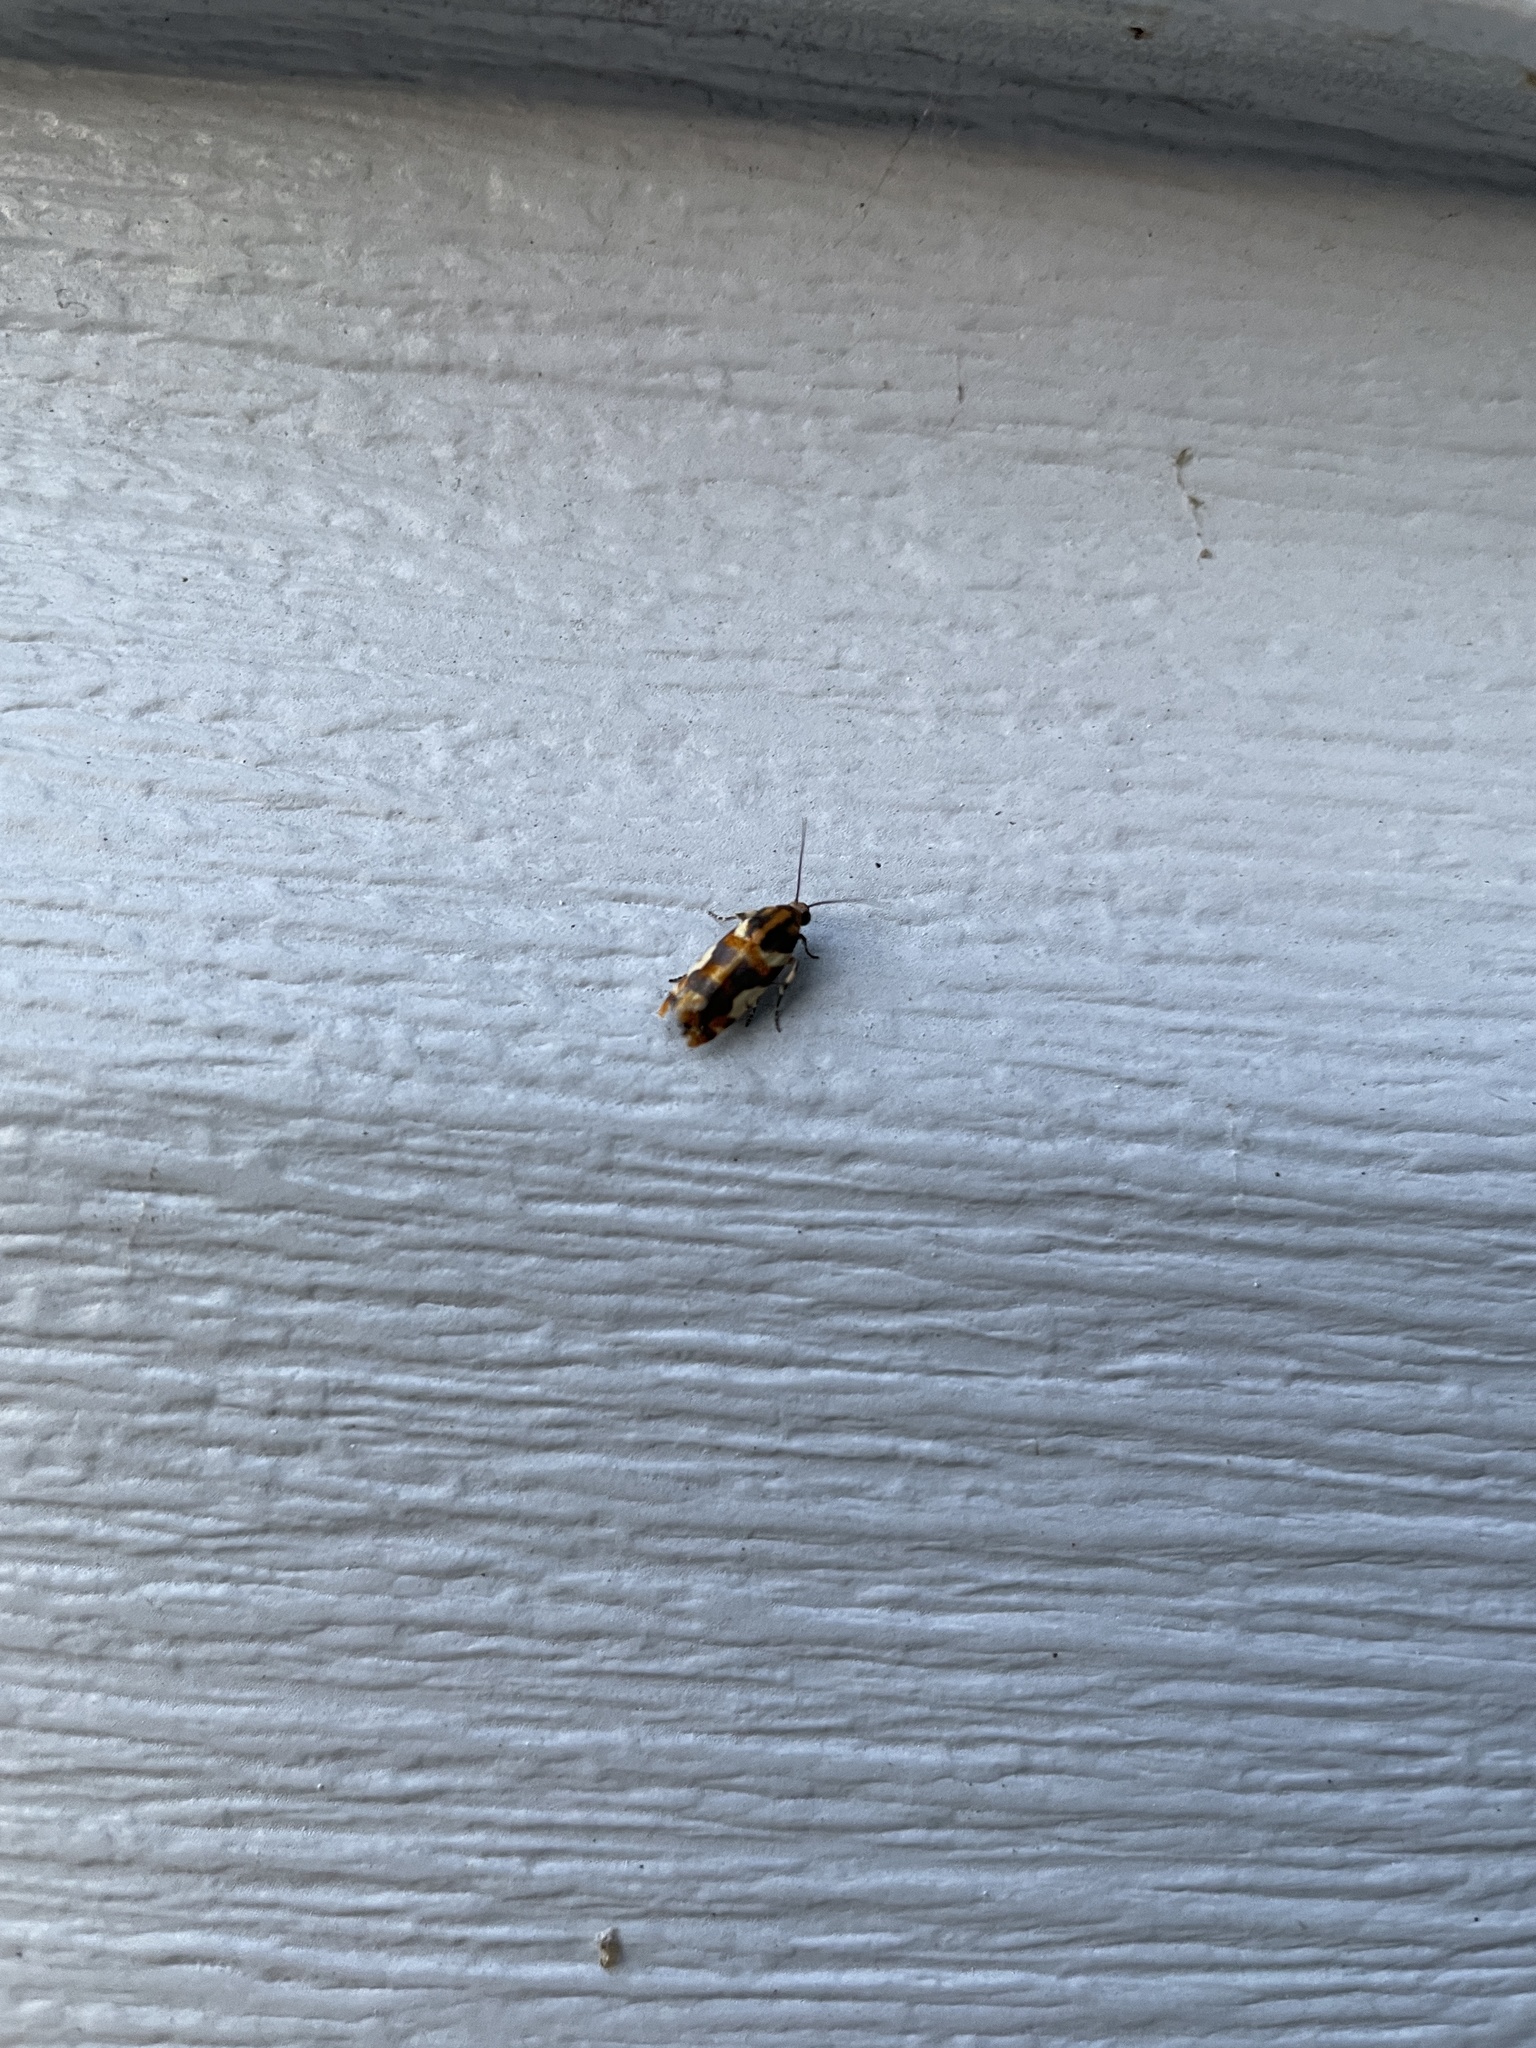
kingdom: Animalia
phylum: Arthropoda
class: Insecta
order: Lepidoptera
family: Noctuidae
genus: Acontia
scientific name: Acontia dama
